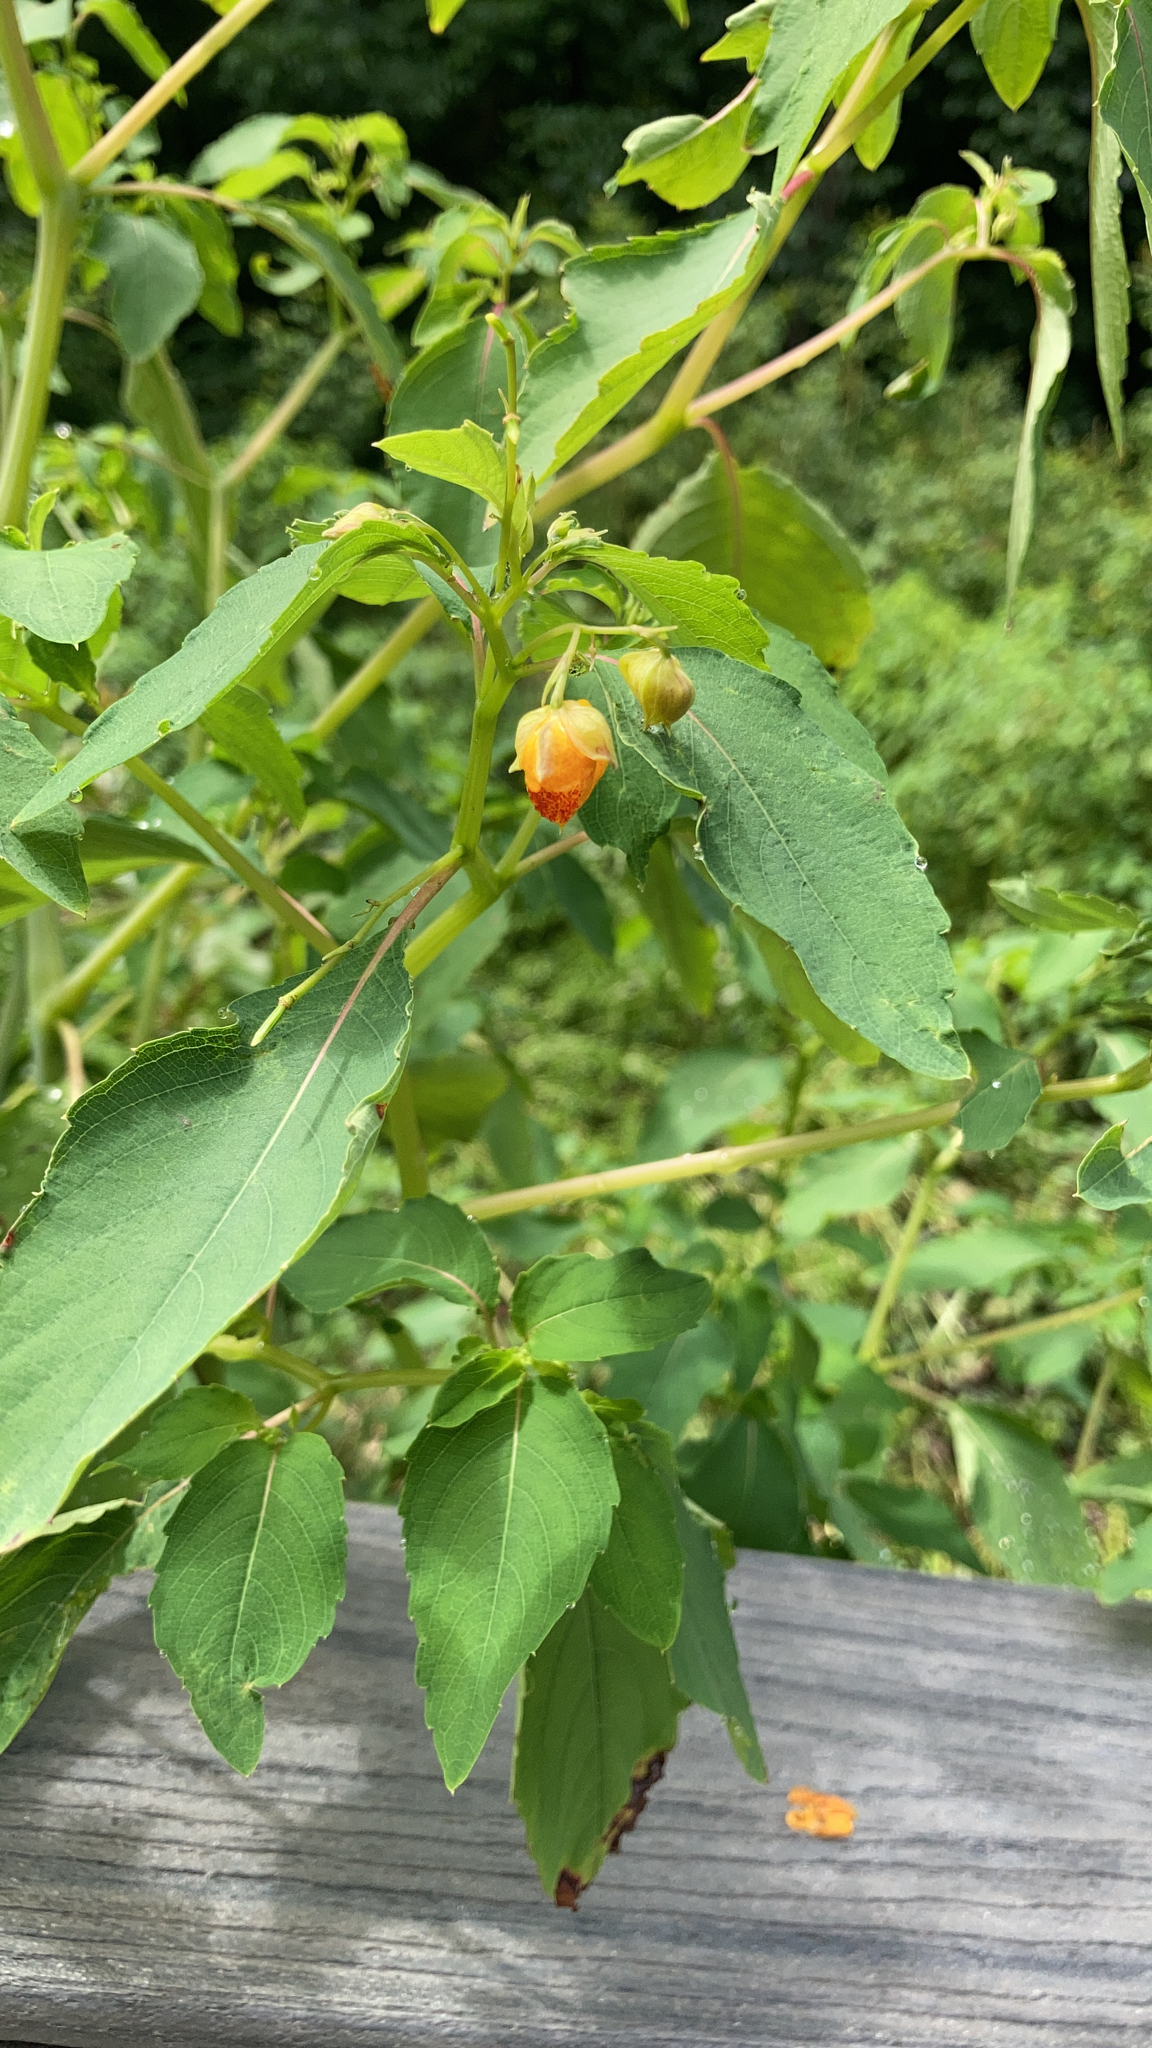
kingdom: Plantae
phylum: Tracheophyta
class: Magnoliopsida
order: Ericales
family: Balsaminaceae
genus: Impatiens
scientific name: Impatiens capensis
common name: Orange balsam
